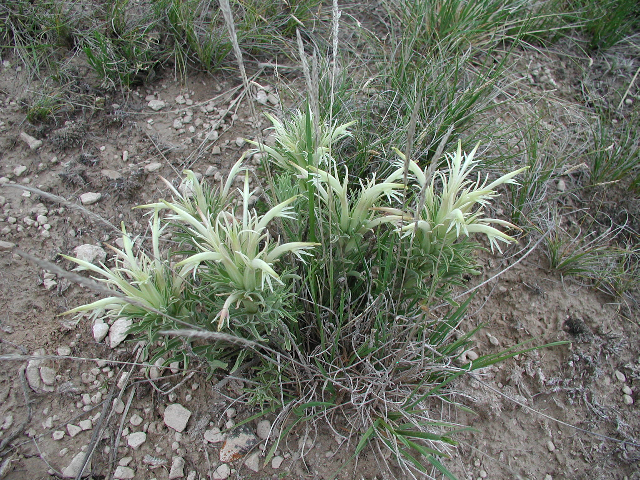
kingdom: Plantae
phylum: Tracheophyta
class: Magnoliopsida
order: Lamiales
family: Orobanchaceae
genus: Castilleja
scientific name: Castilleja sessiliflora
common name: Downy paintbrush
